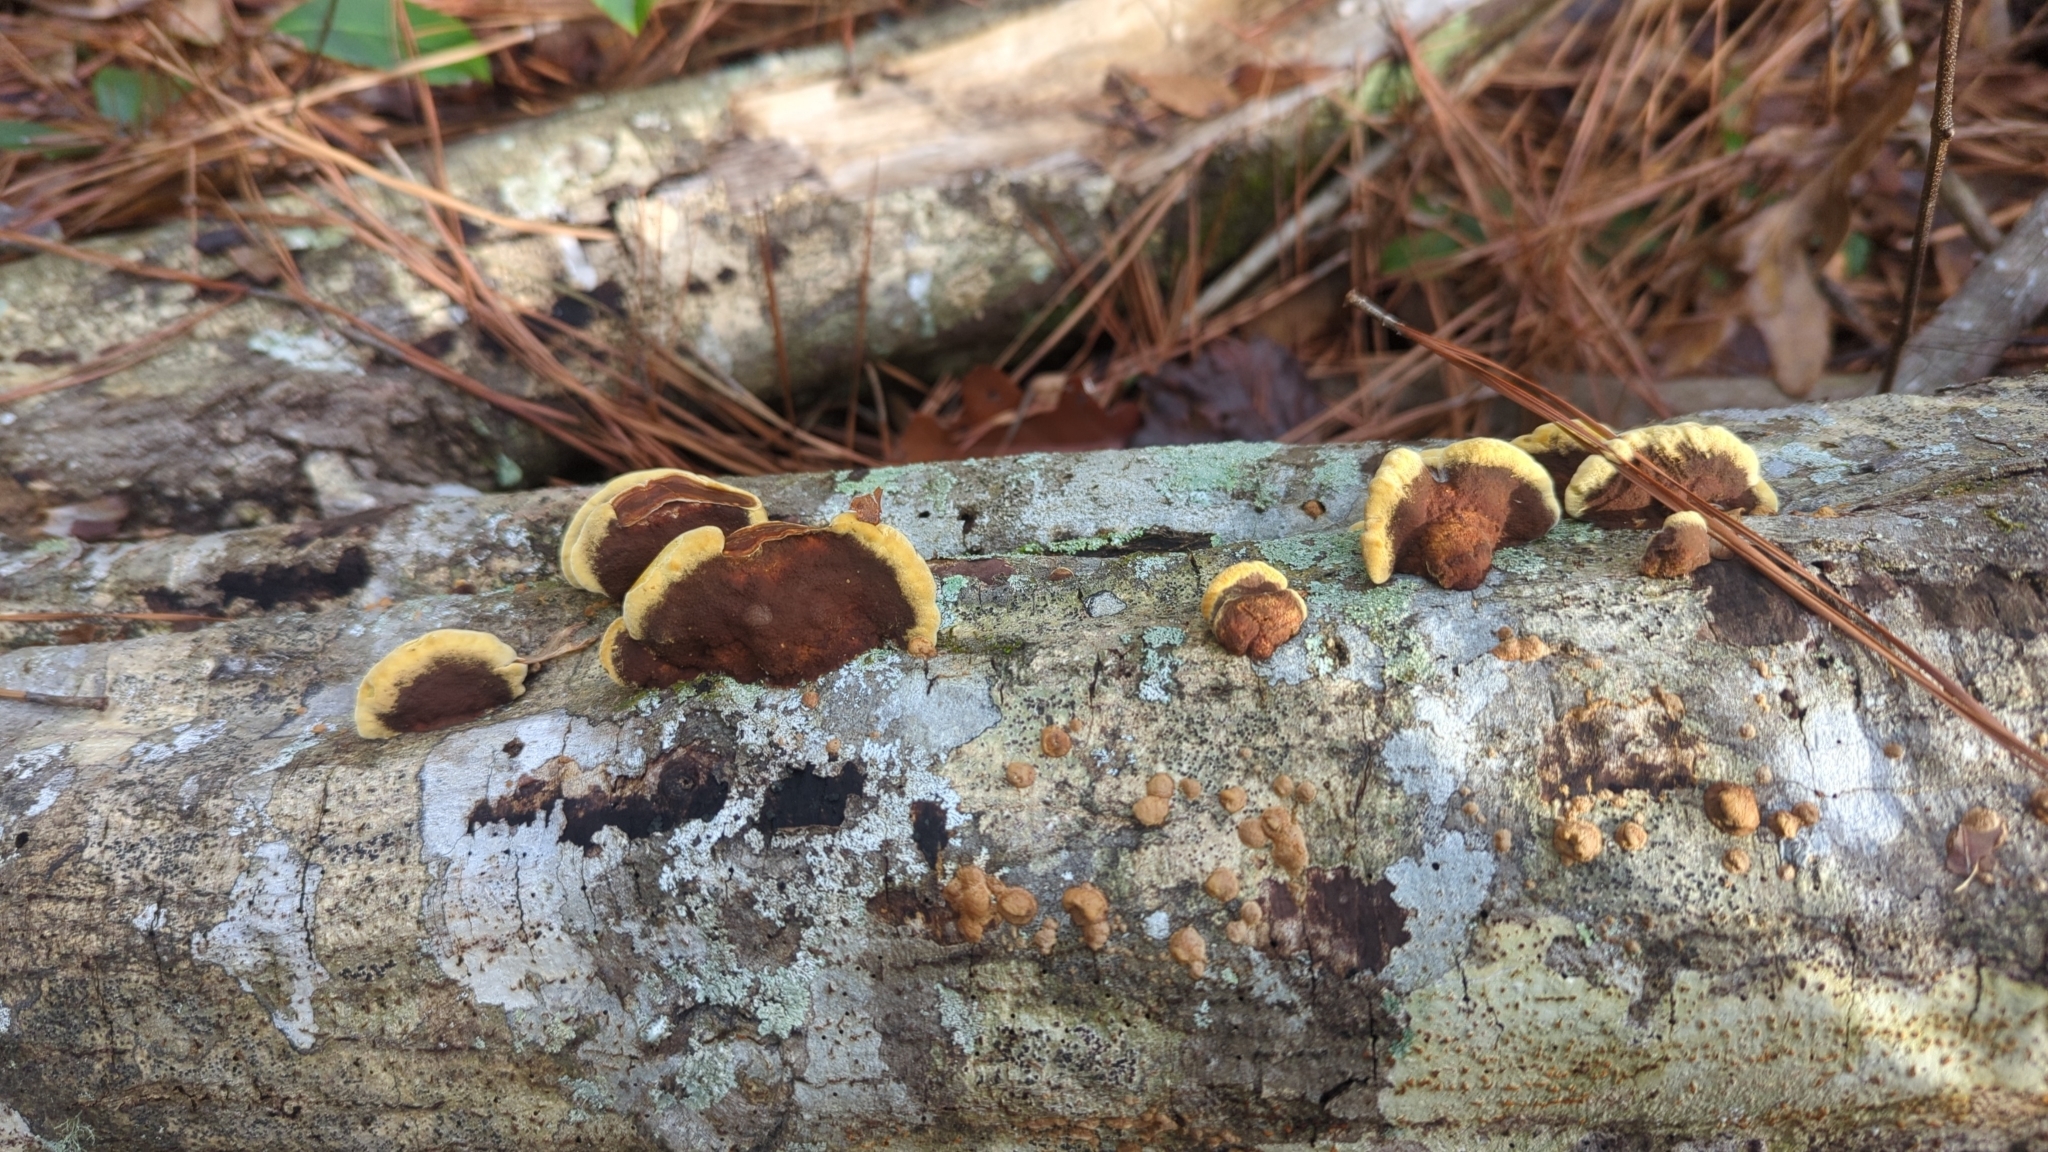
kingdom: Fungi
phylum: Basidiomycota
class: Agaricomycetes
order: Hymenochaetales
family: Hymenochaetaceae
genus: Phellinus
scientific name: Phellinus gilvus
